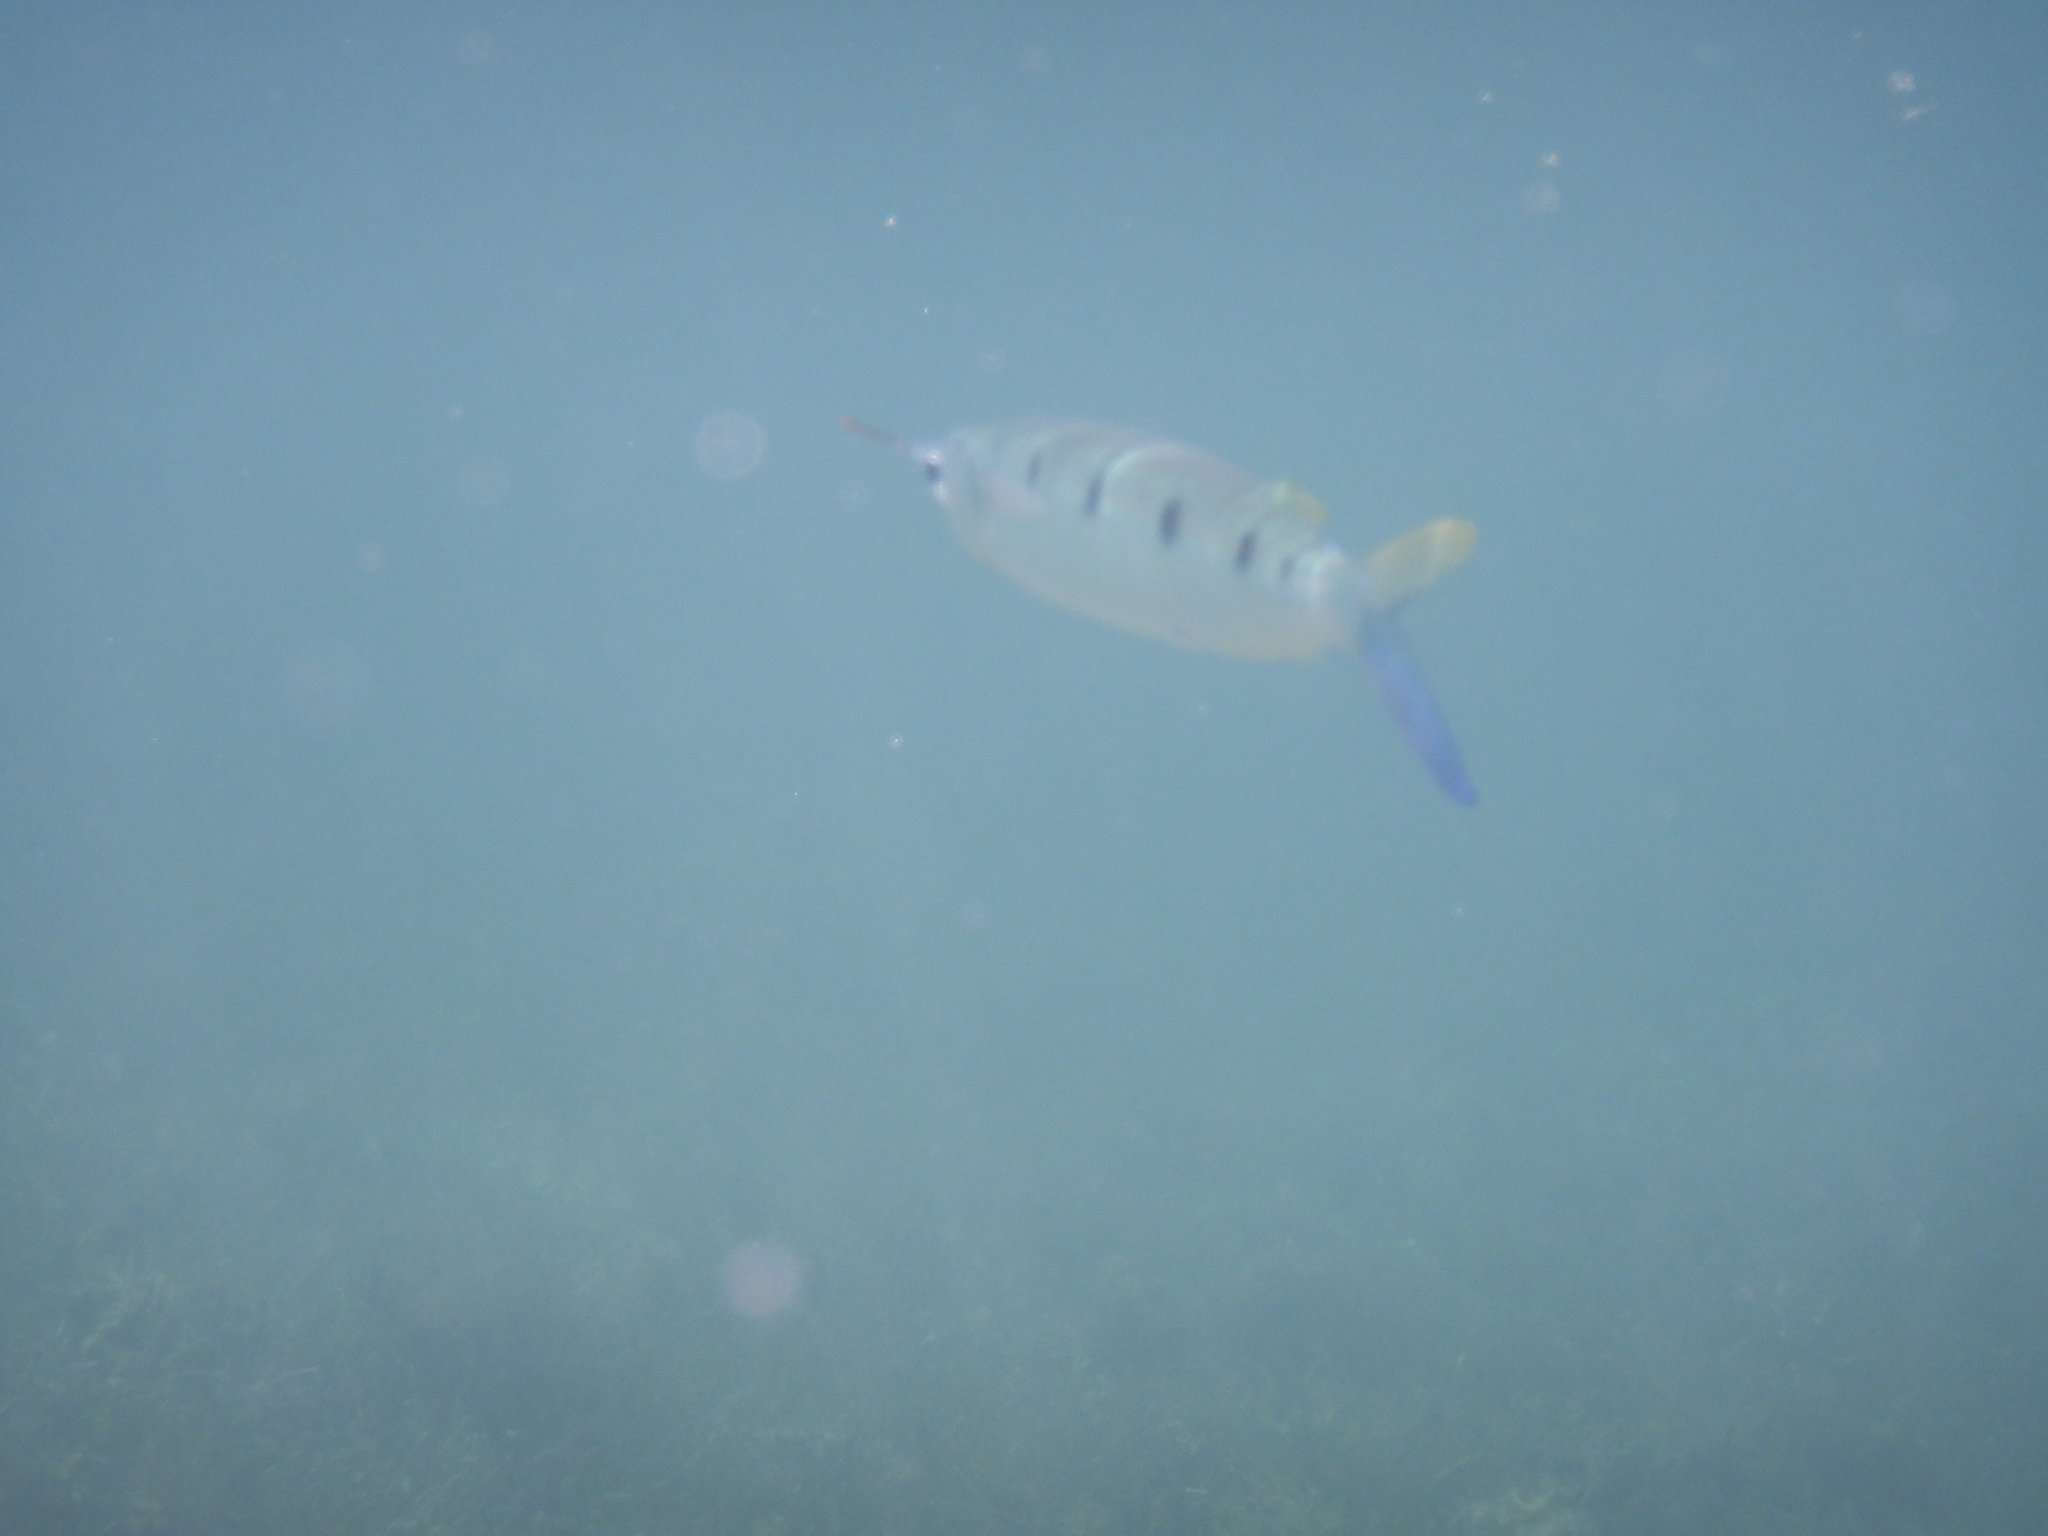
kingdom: Animalia
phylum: Chordata
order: Beloniformes
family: Hemiramphidae
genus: Hemiramphus
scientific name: Hemiramphus far
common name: Black-barred halfbeak
